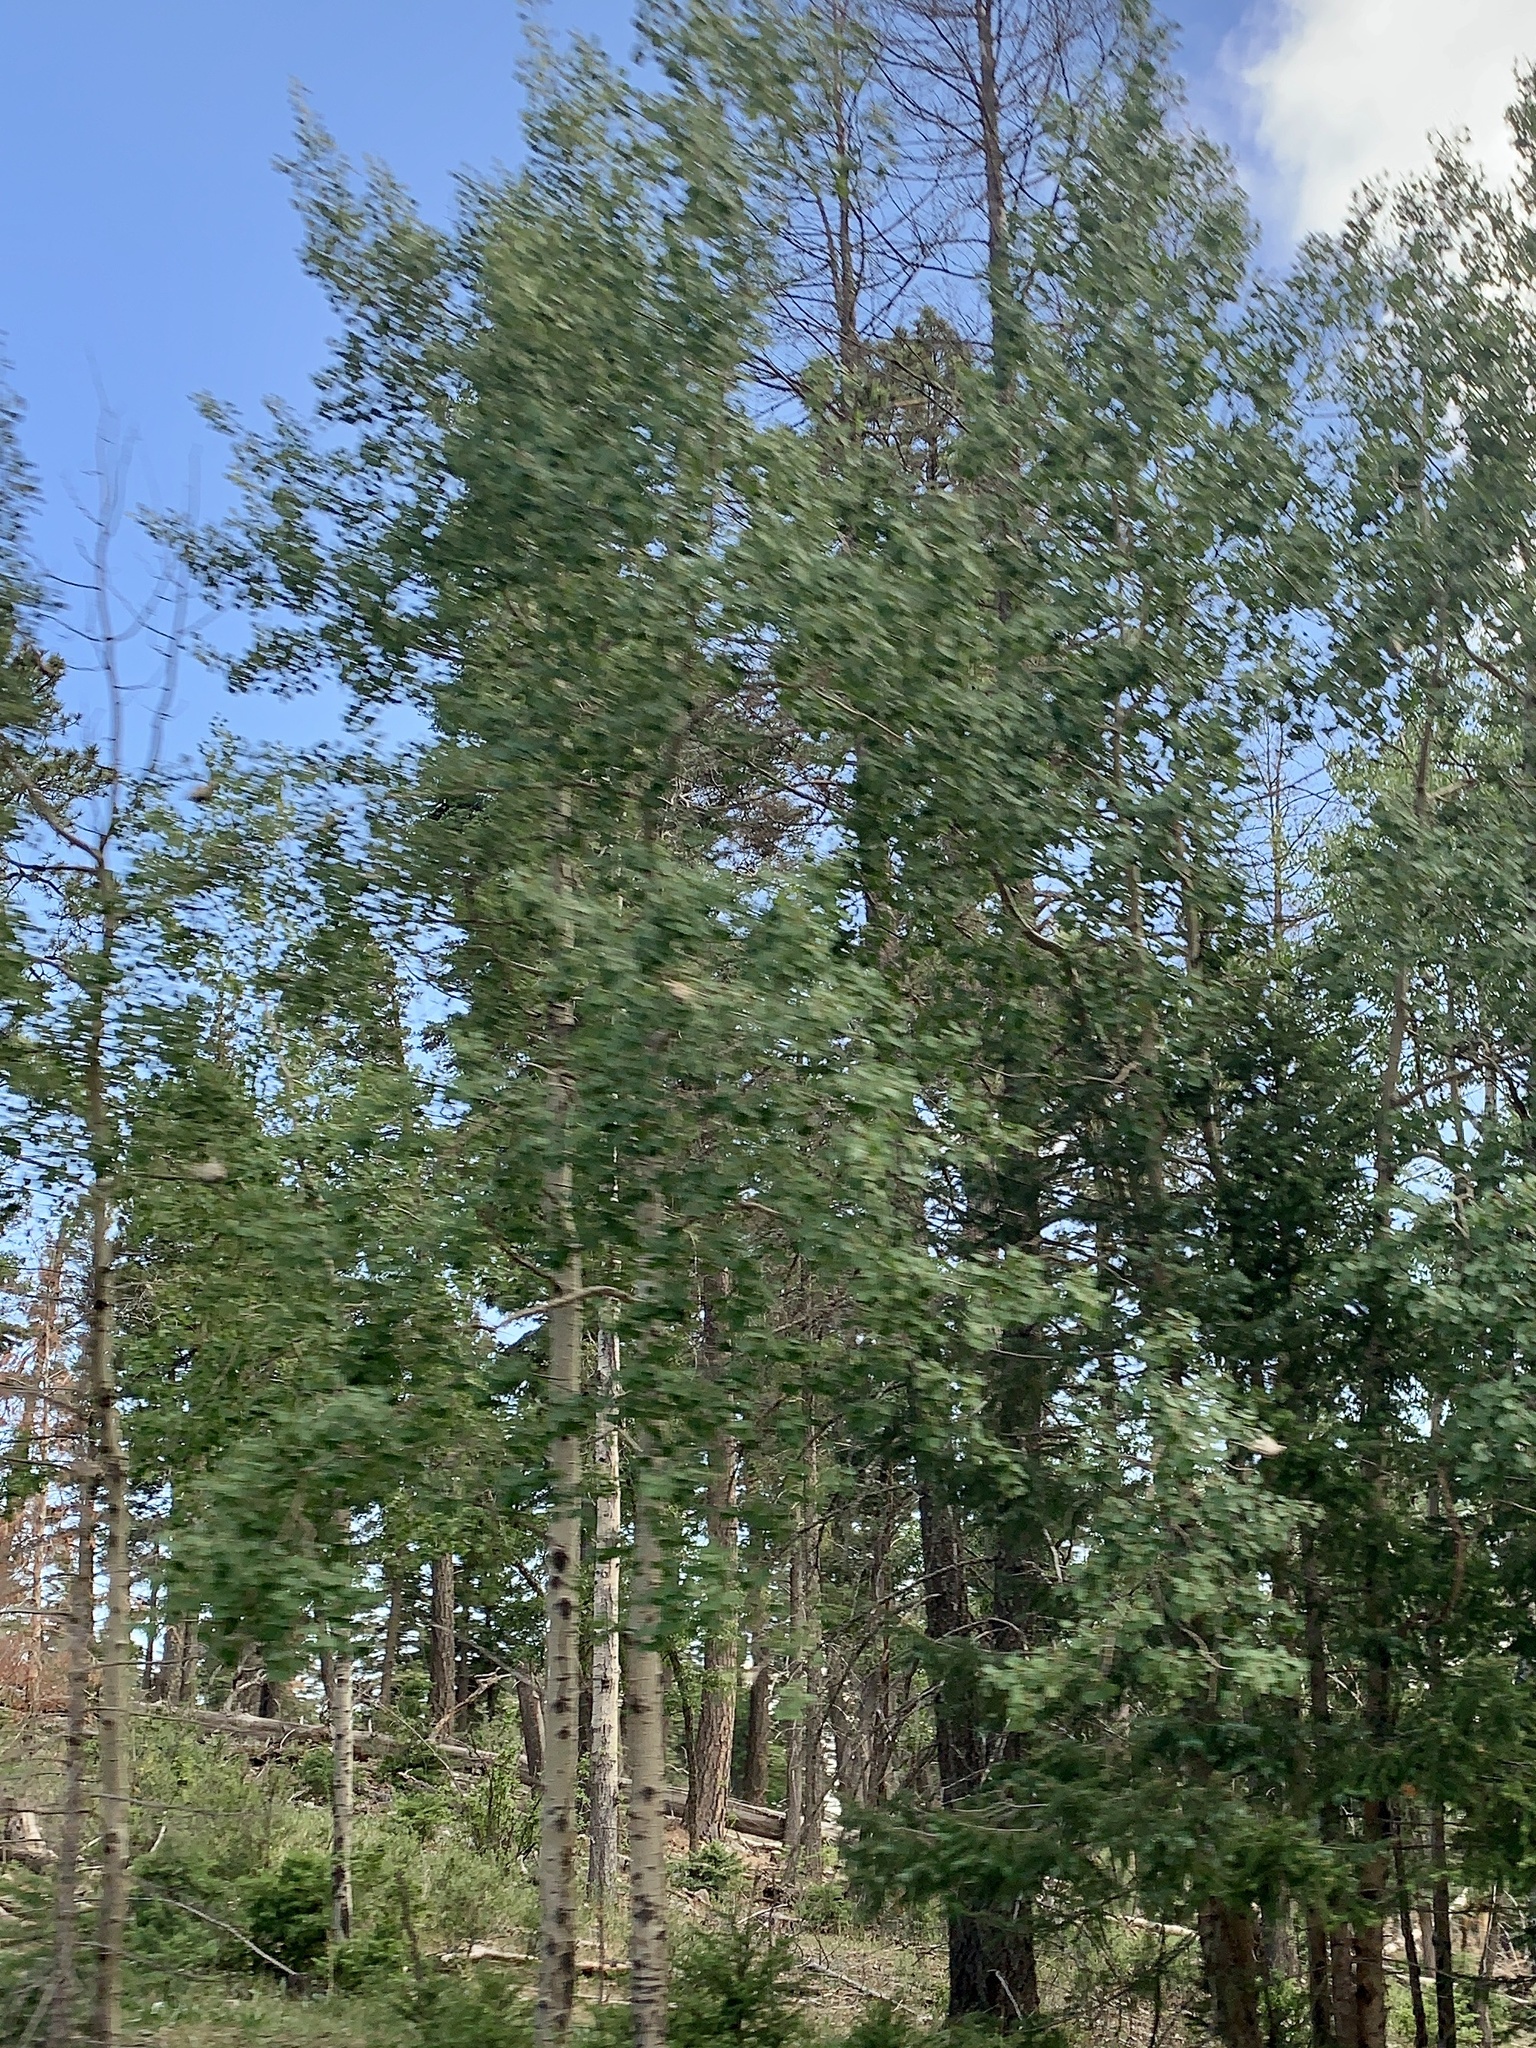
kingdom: Plantae
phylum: Tracheophyta
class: Magnoliopsida
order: Malpighiales
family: Salicaceae
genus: Populus
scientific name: Populus tremuloides
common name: Quaking aspen
